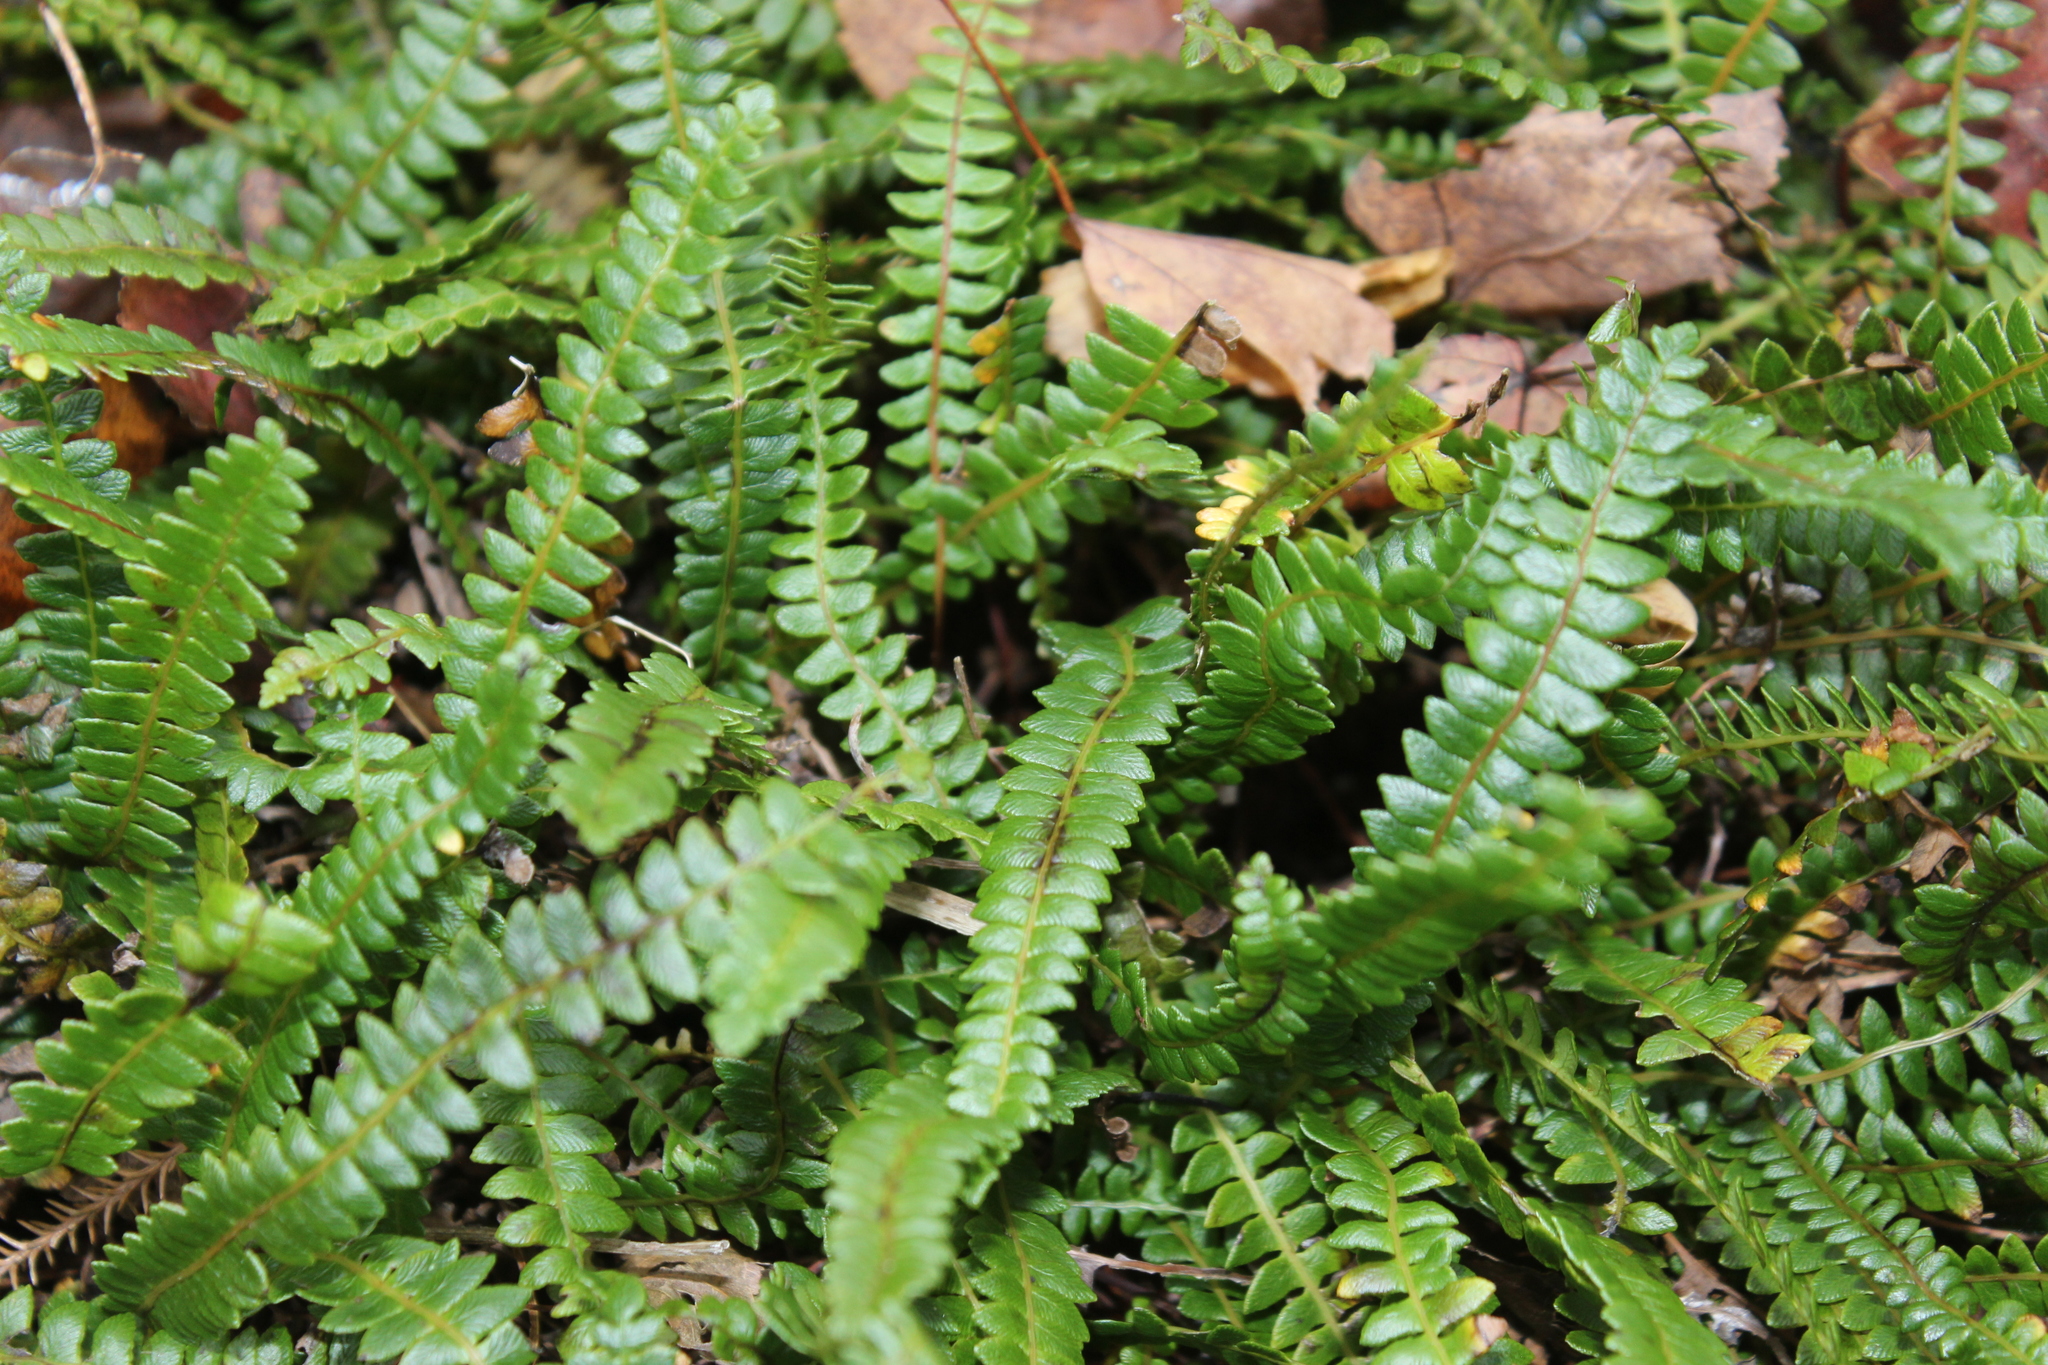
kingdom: Plantae
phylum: Tracheophyta
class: Polypodiopsida
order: Polypodiales
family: Blechnaceae
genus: Austroblechnum
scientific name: Austroblechnum penna-marina
